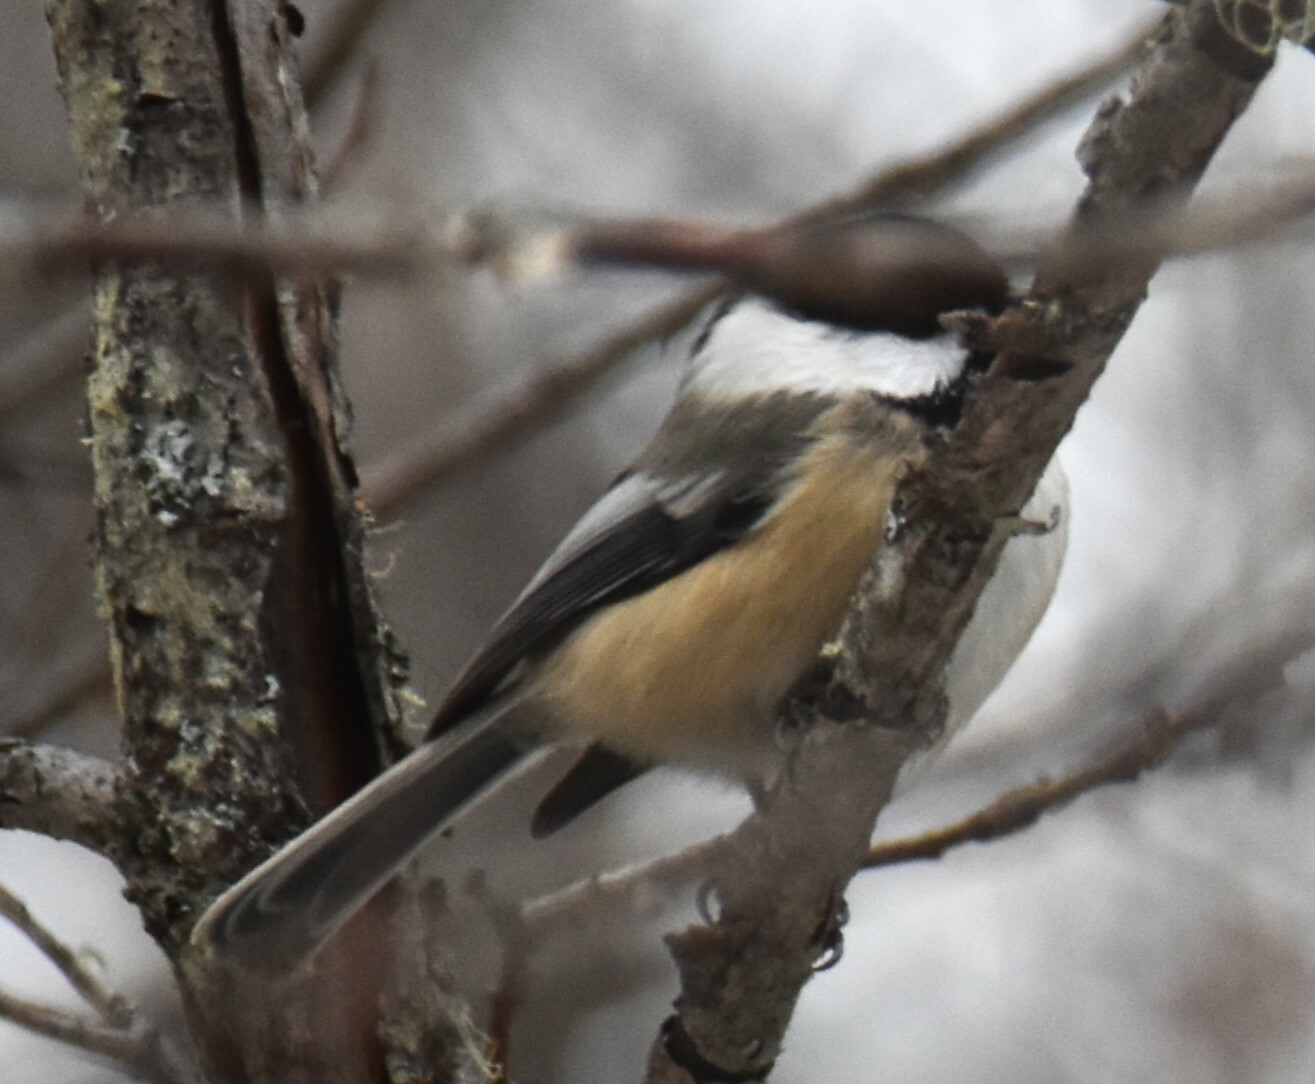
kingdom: Animalia
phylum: Chordata
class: Aves
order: Passeriformes
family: Paridae
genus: Poecile
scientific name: Poecile atricapillus
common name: Black-capped chickadee
